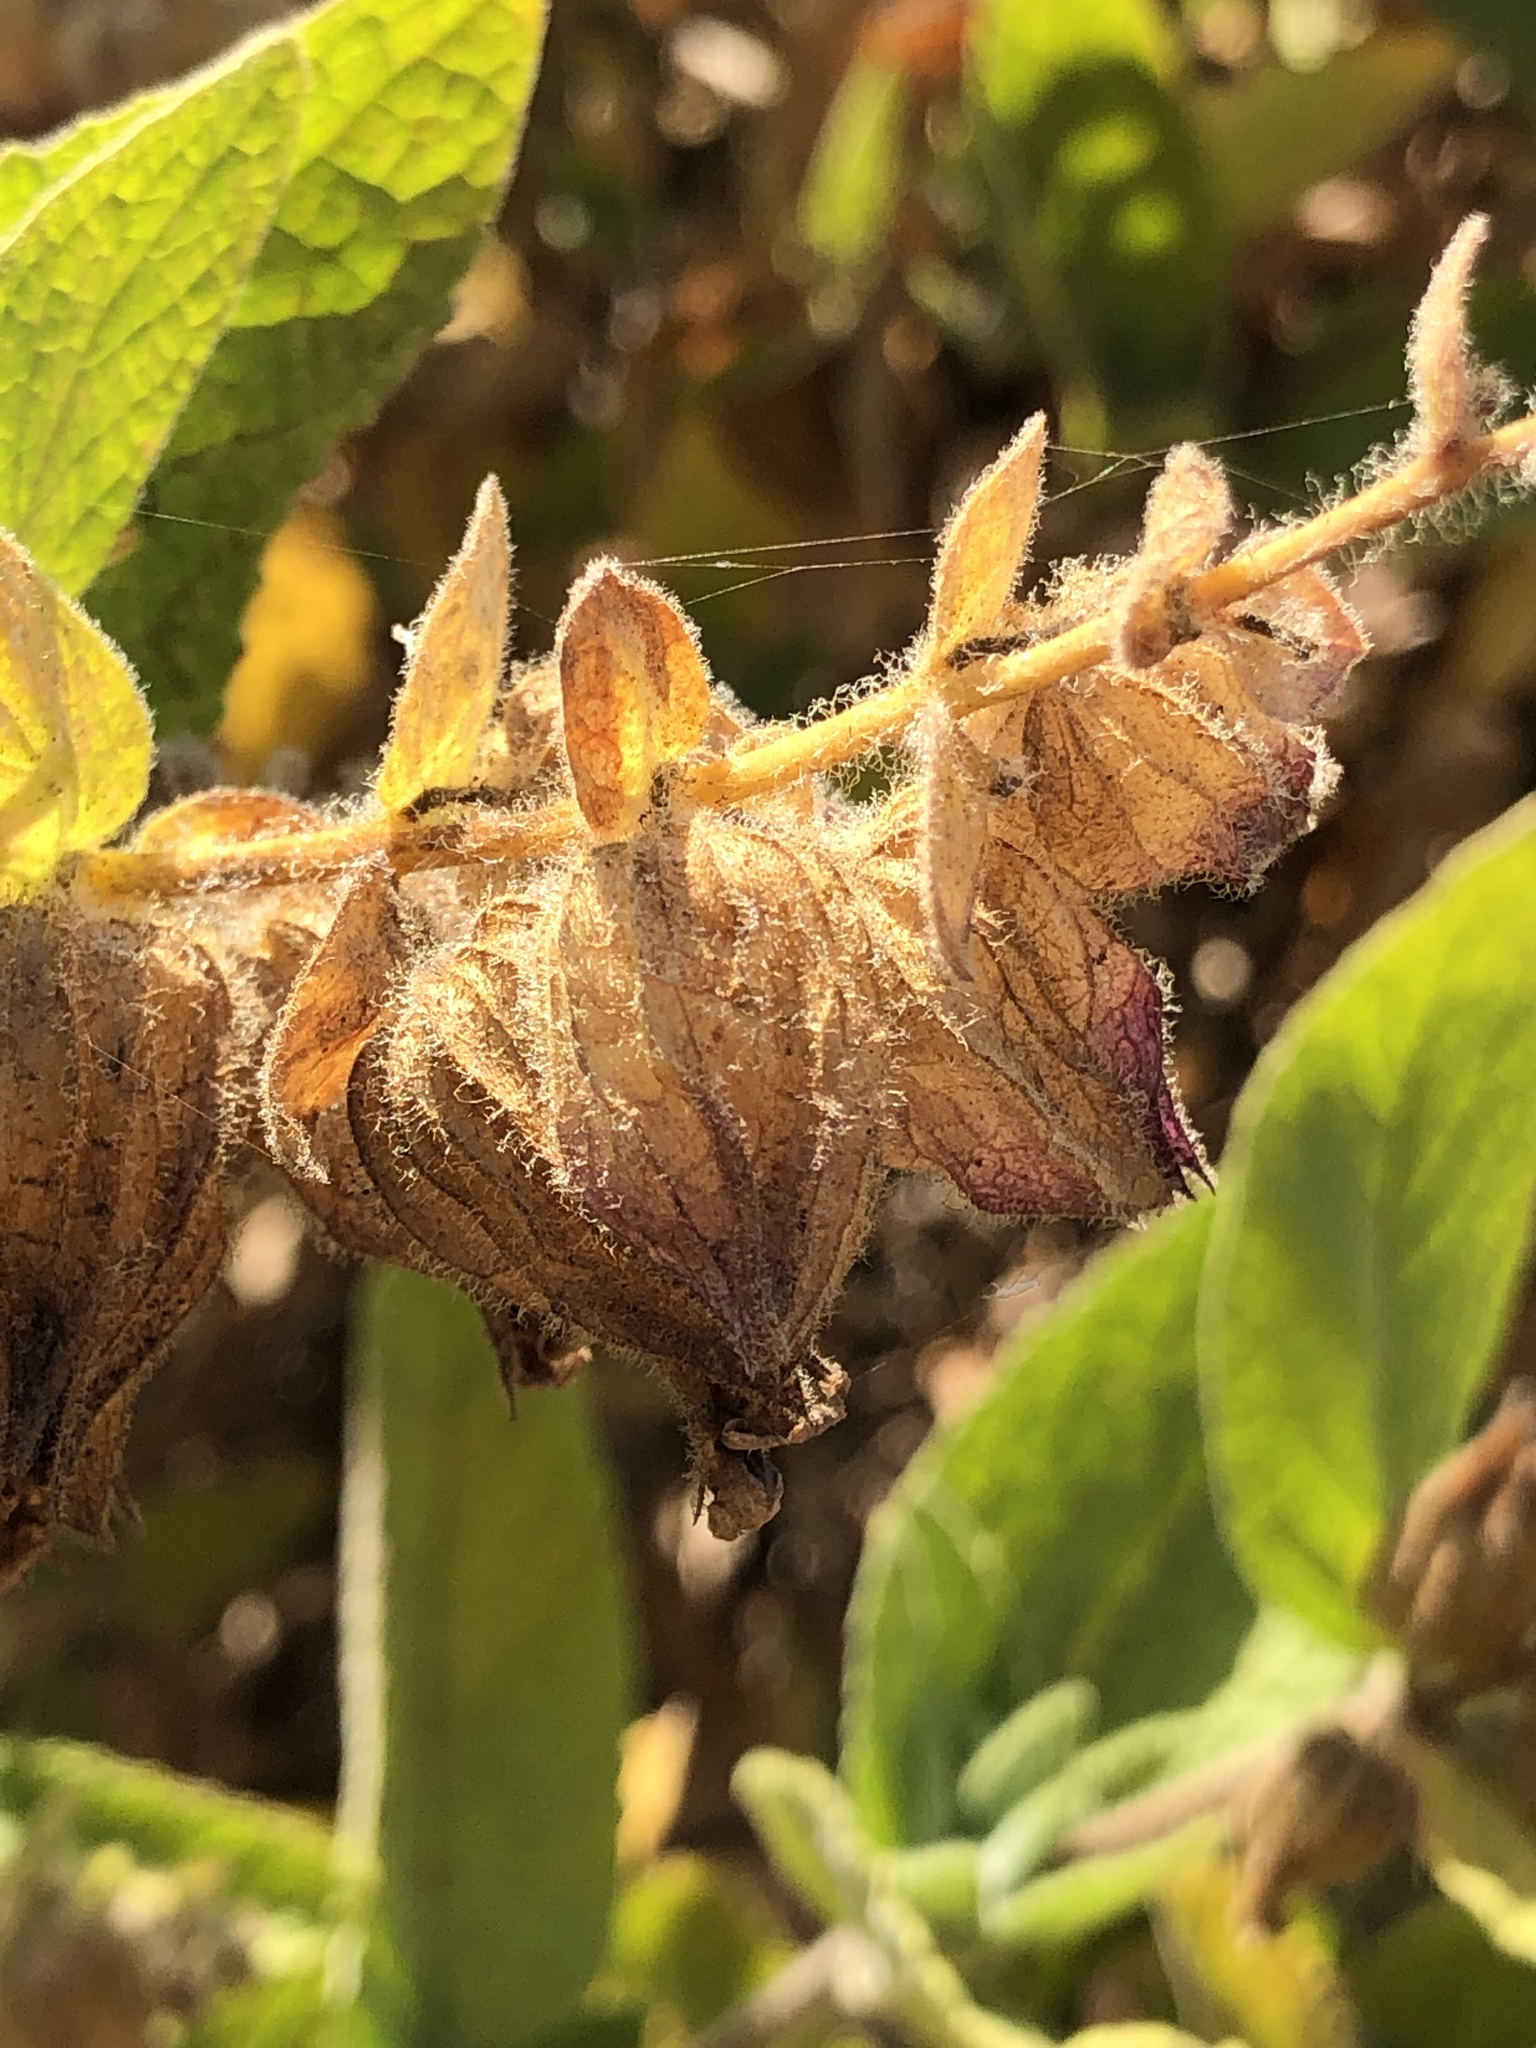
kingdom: Plantae
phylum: Tracheophyta
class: Magnoliopsida
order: Lamiales
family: Lamiaceae
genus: Lepechinia
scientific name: Lepechinia calycina
